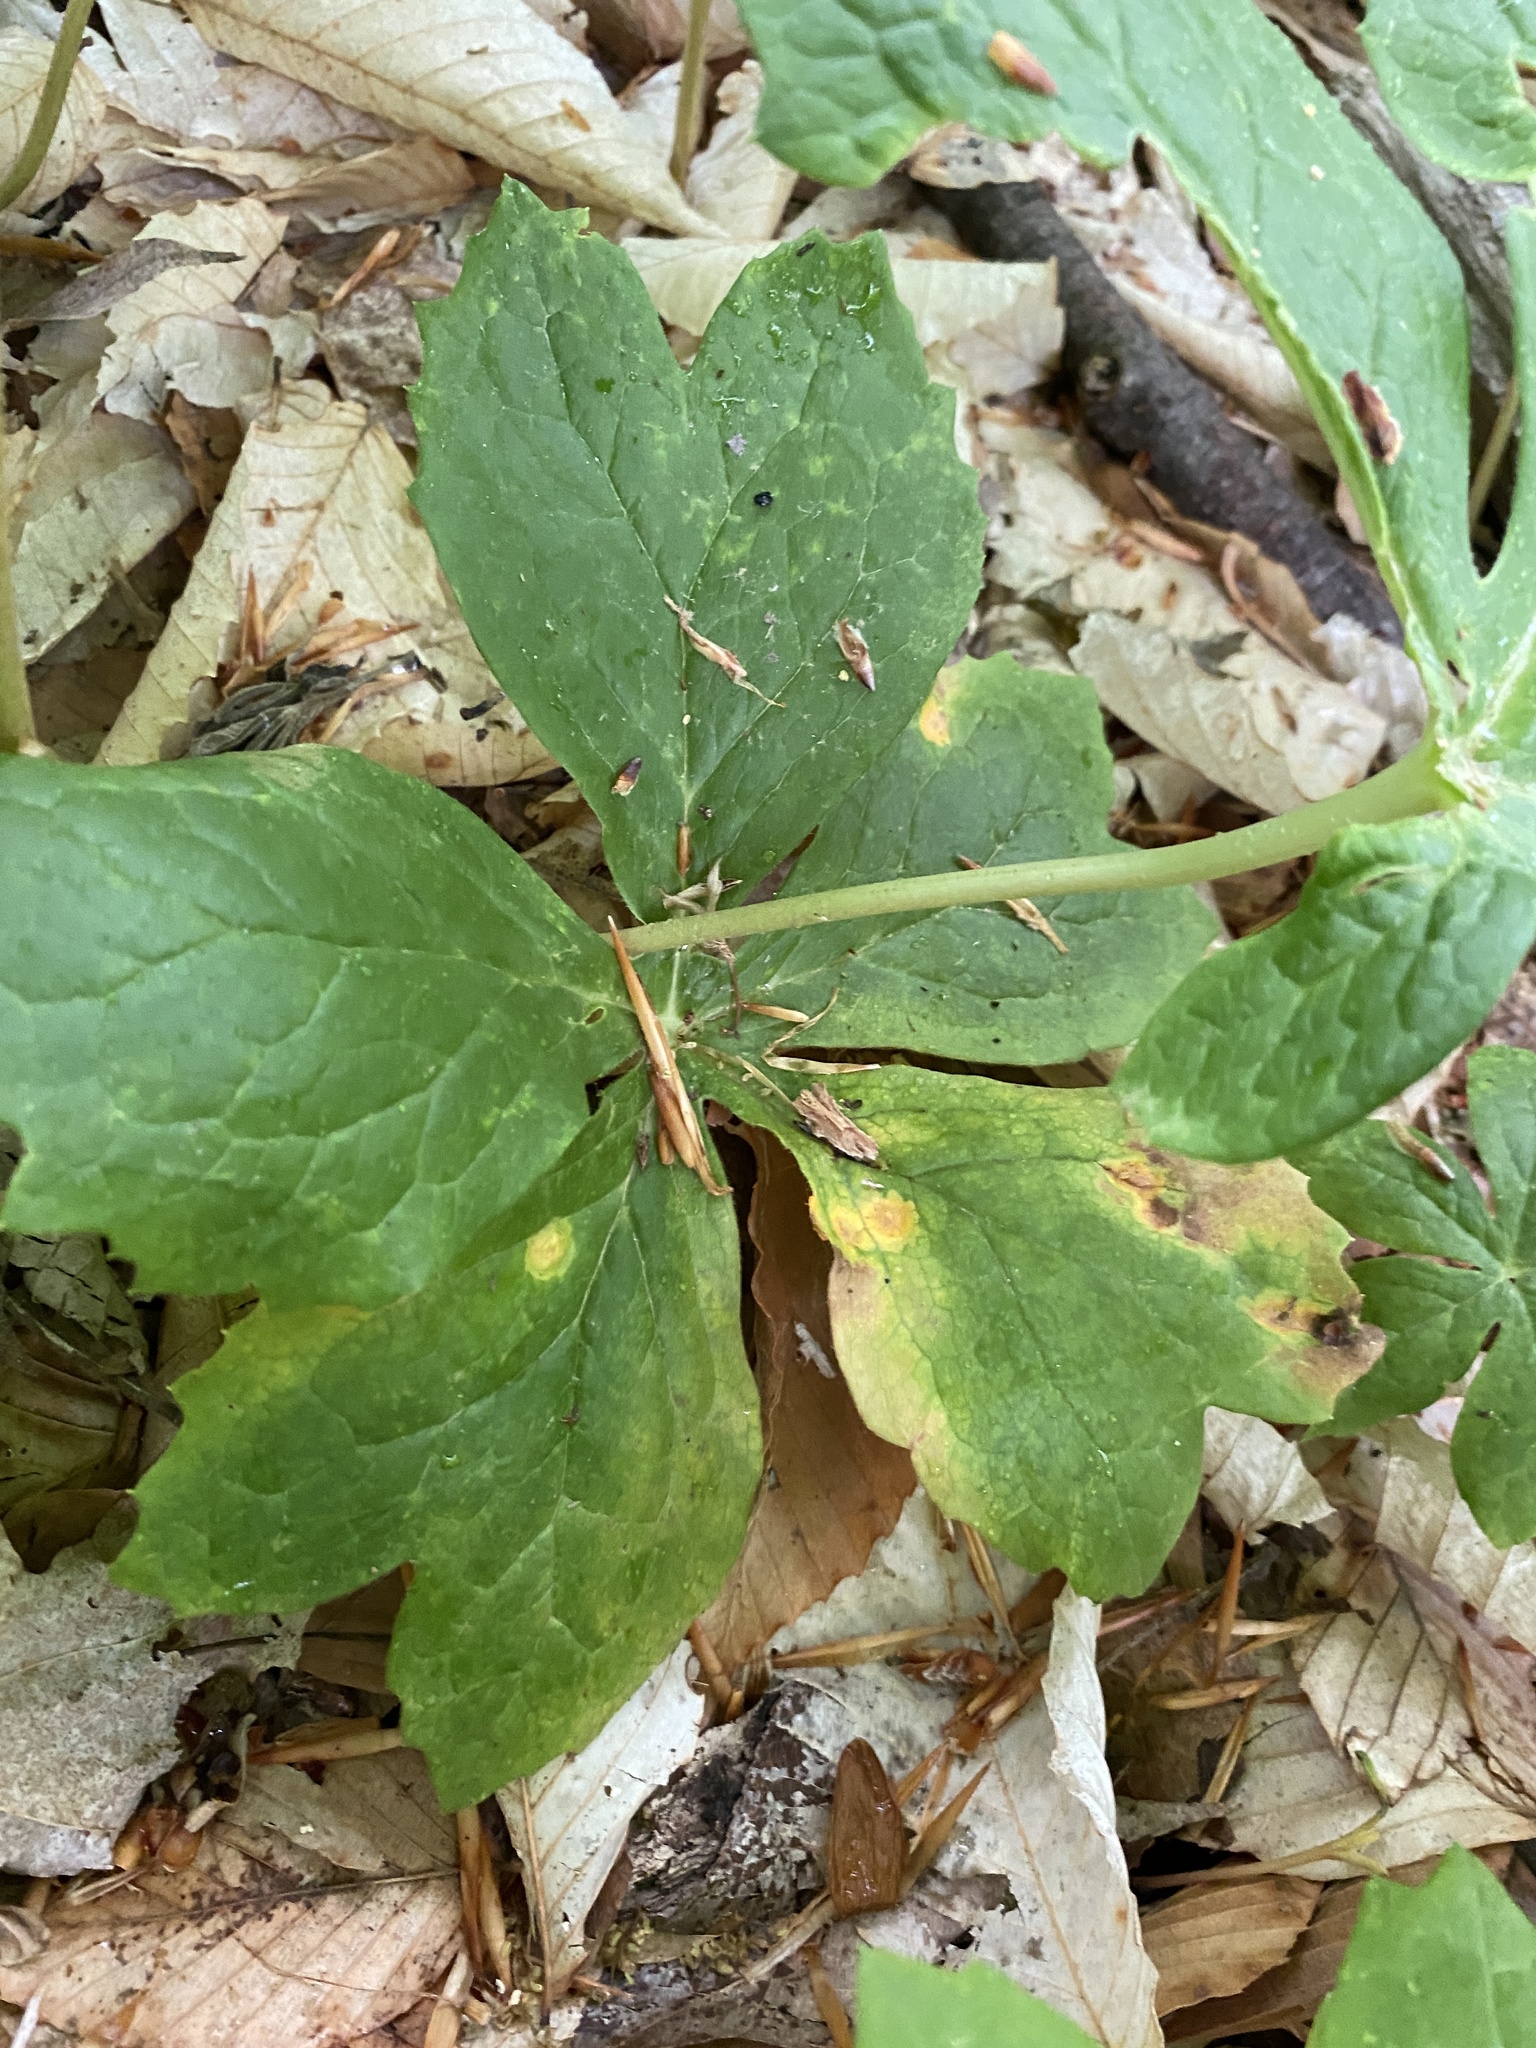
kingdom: Fungi
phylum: Basidiomycota
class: Pucciniomycetes
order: Pucciniales
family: Pucciniaceae
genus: Puccinia
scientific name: Puccinia podophylli
